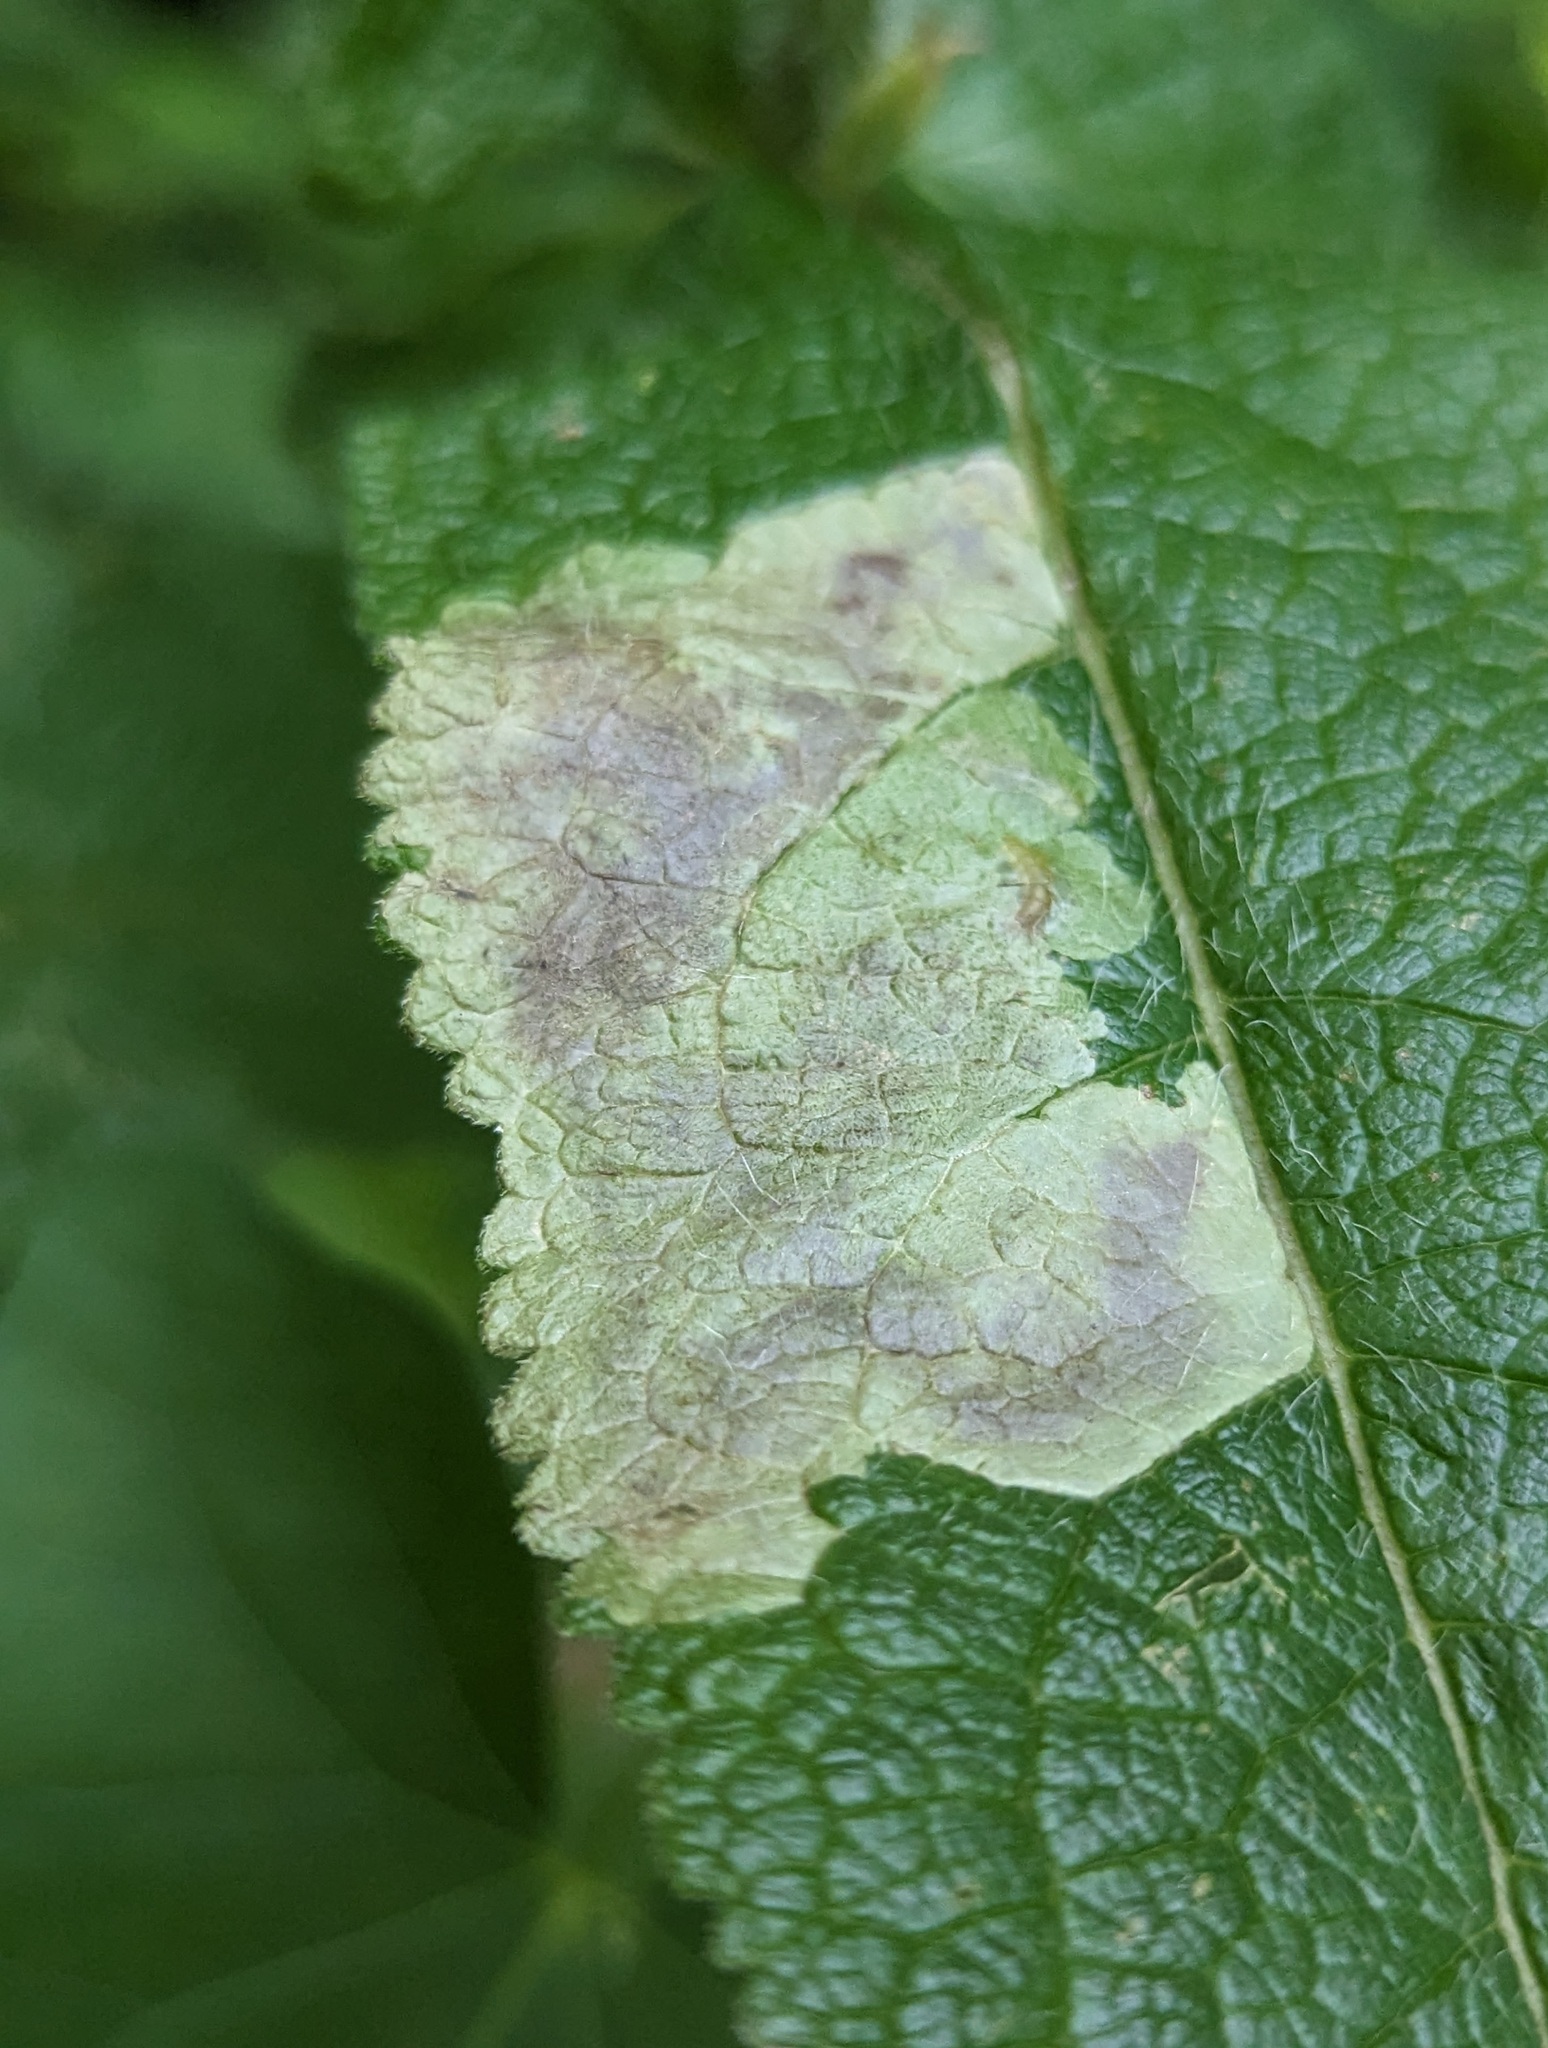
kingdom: Animalia
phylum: Arthropoda
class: Insecta
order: Diptera
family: Agromyzidae
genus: Calycomyza
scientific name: Calycomyza flavinotum
